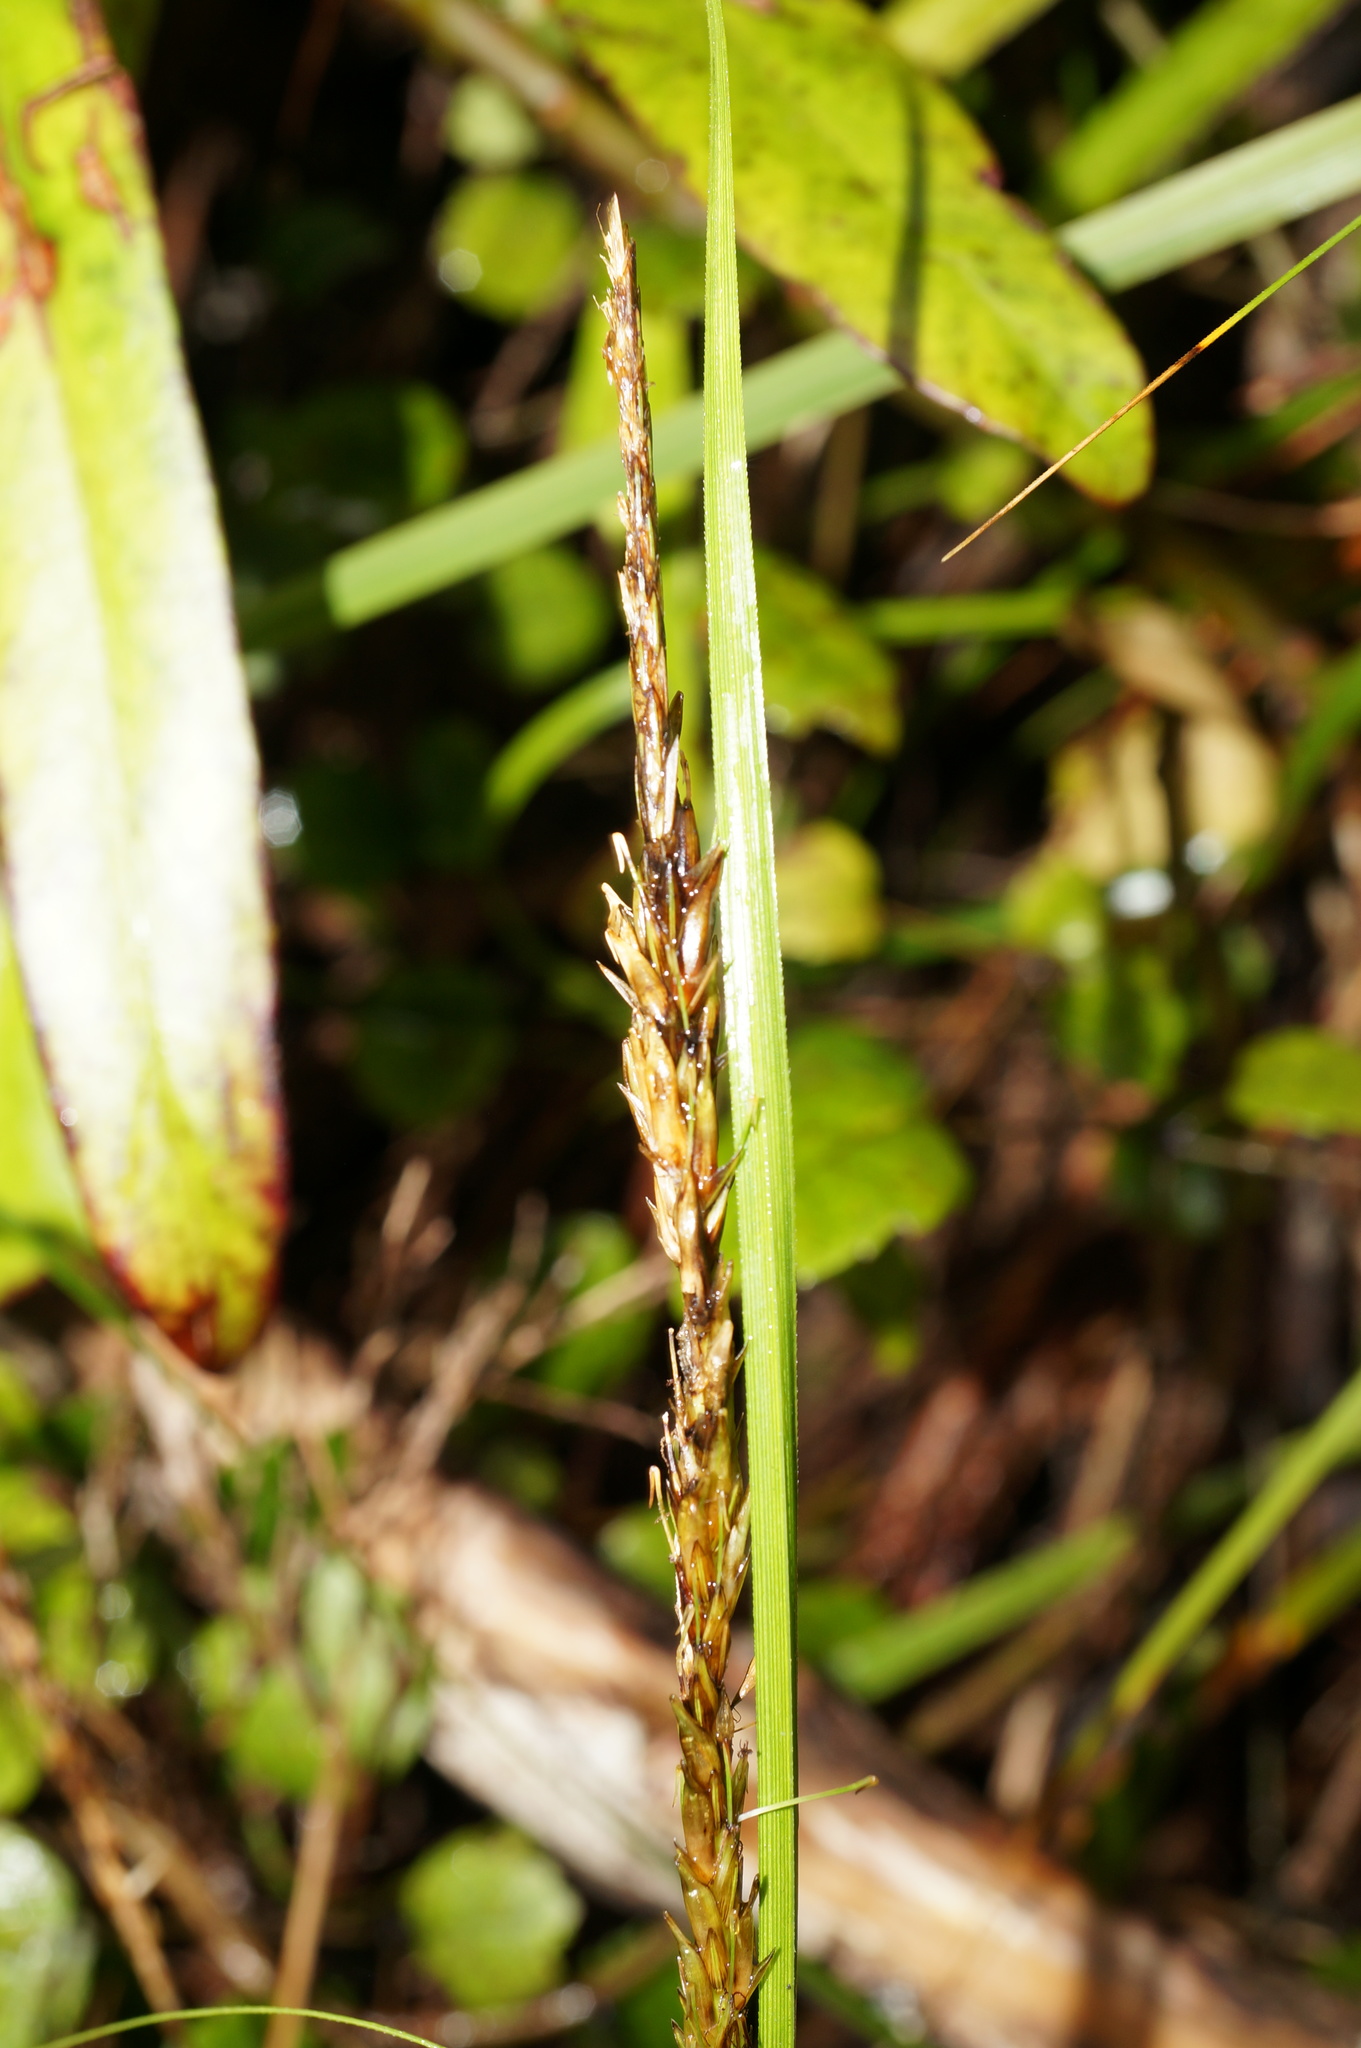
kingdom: Plantae
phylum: Tracheophyta
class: Liliopsida
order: Poales
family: Cyperaceae
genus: Carex
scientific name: Carex uncinata
